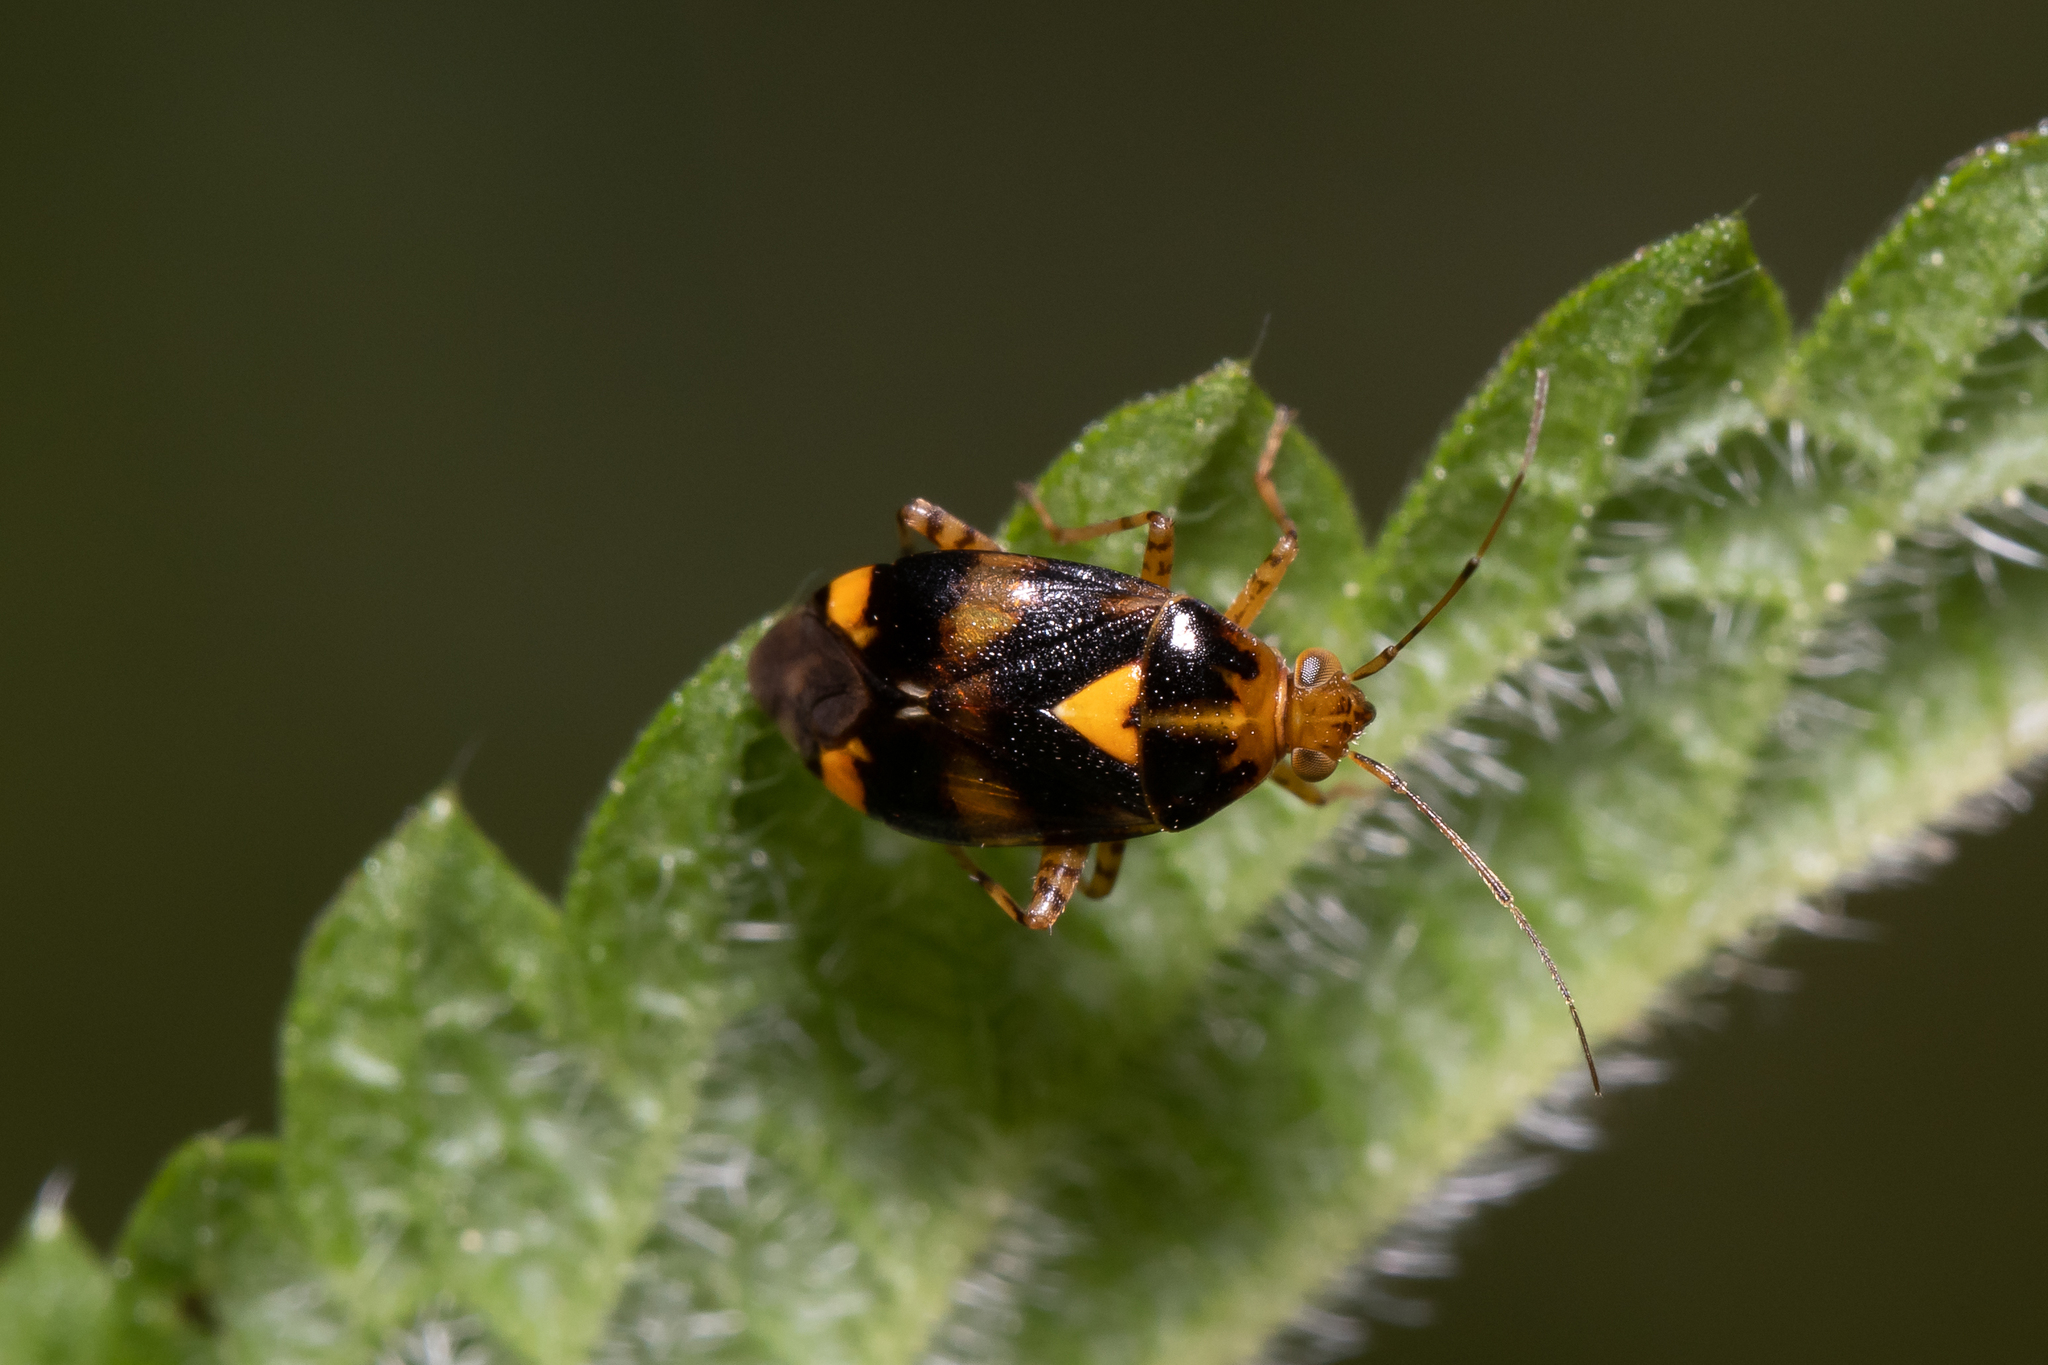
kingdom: Animalia
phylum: Arthropoda
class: Insecta
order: Hemiptera
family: Miridae
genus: Liocoris
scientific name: Liocoris tripustulatus
